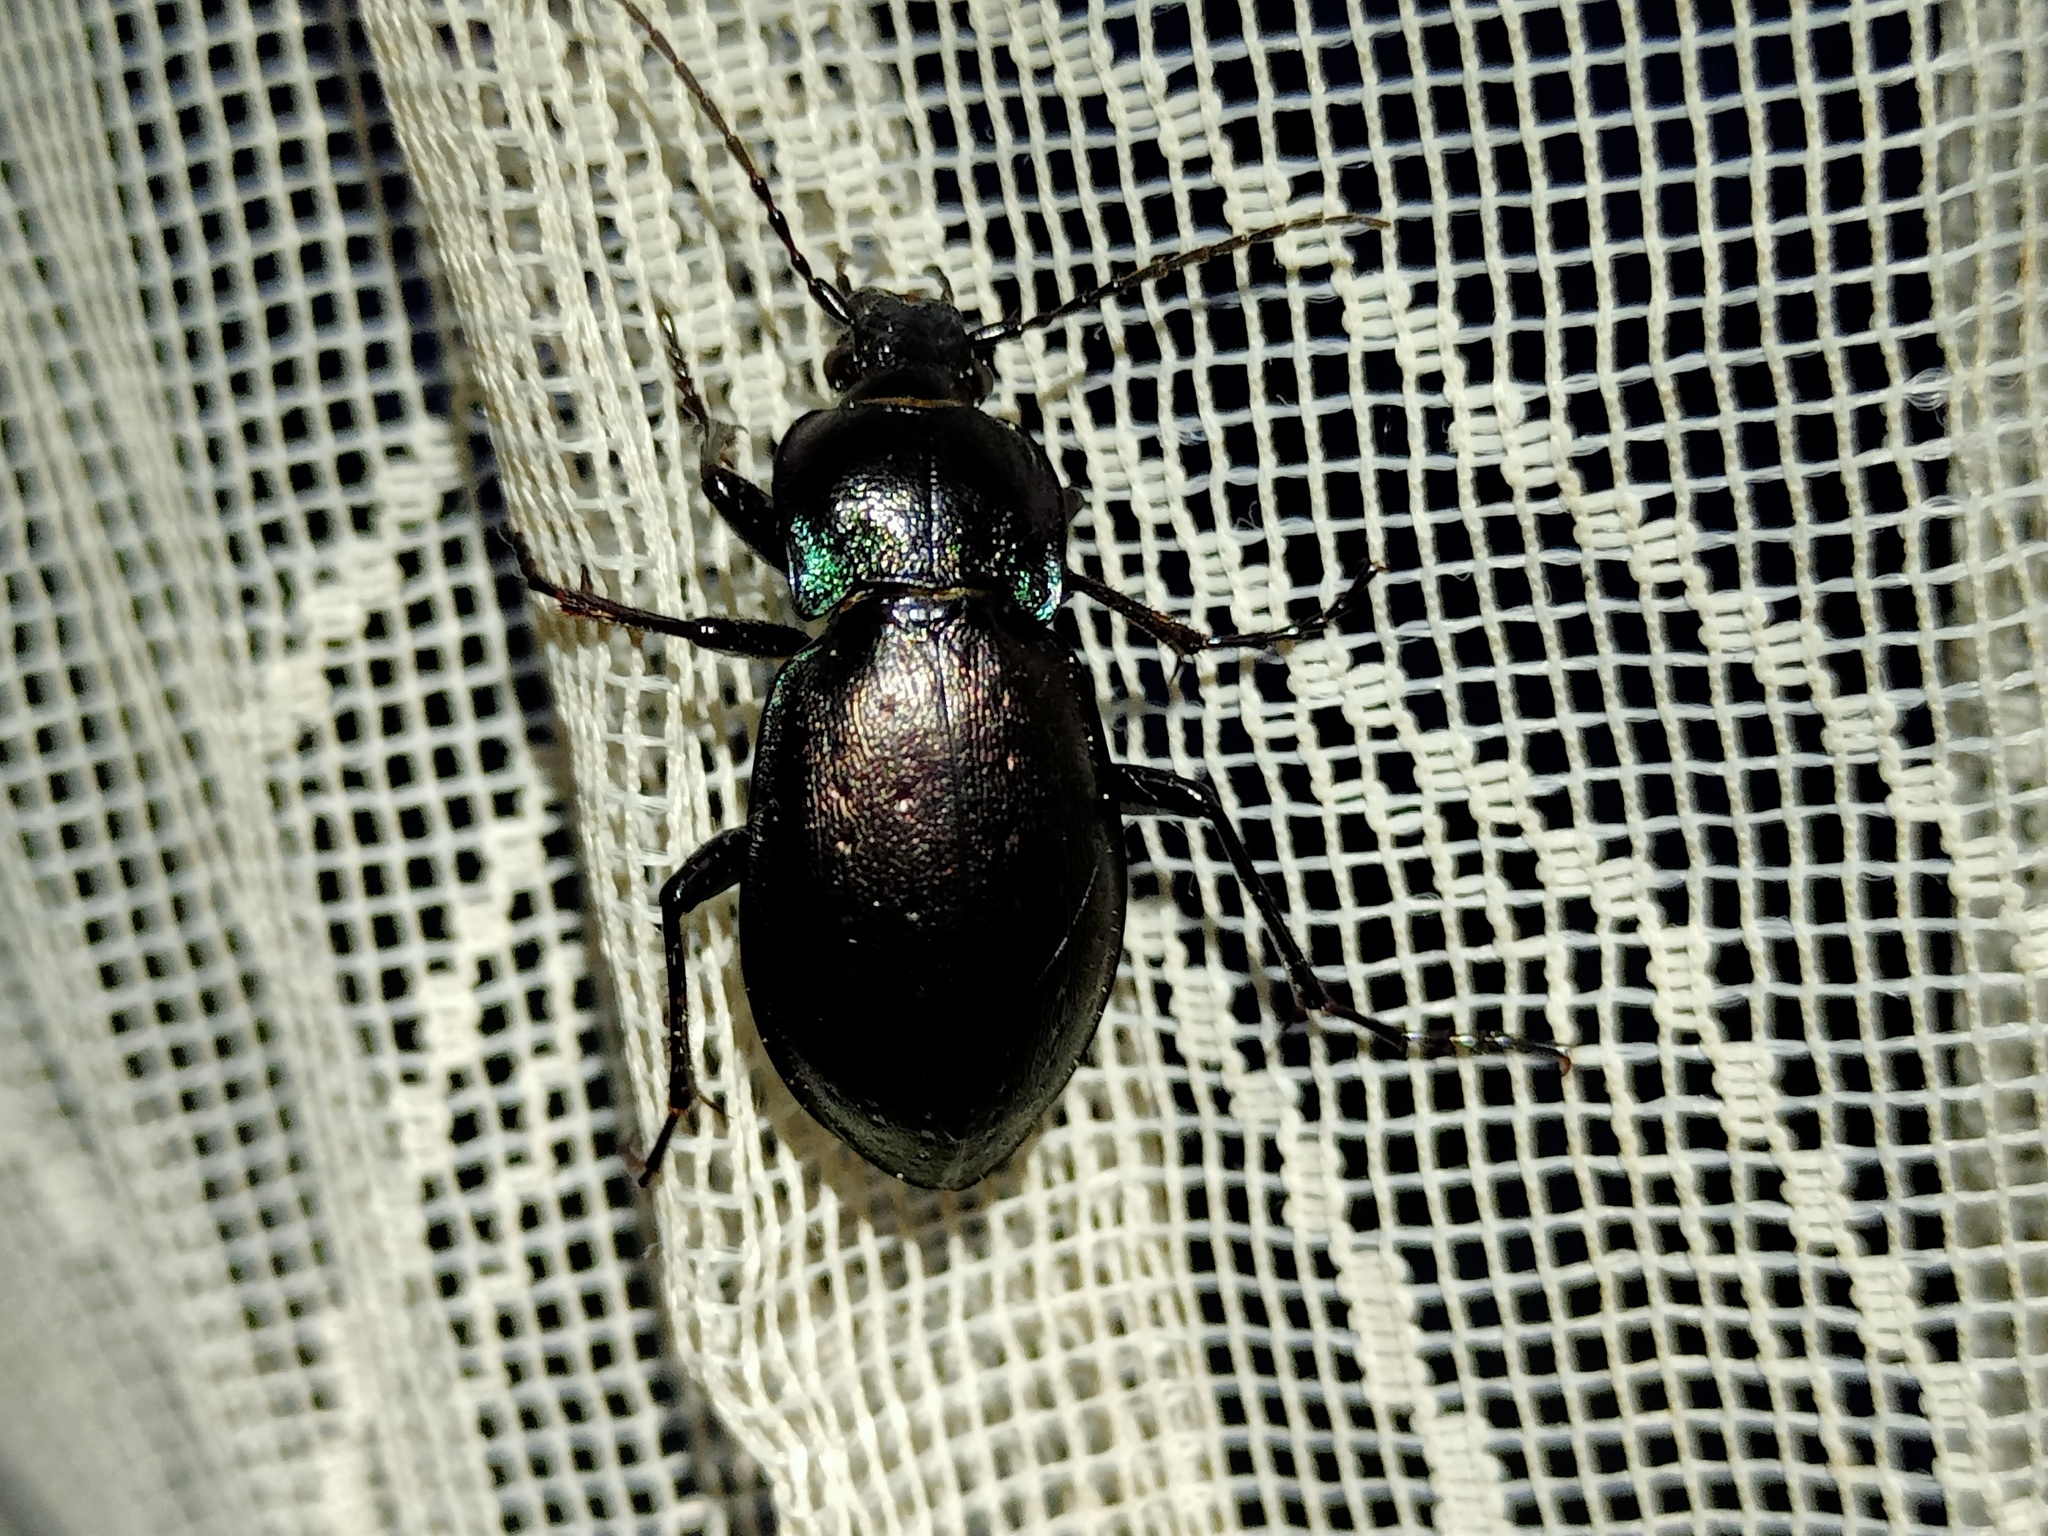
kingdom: Animalia
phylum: Arthropoda
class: Insecta
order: Coleoptera
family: Carabidae
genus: Carabus
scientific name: Carabus nemoralis
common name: European ground beetle
